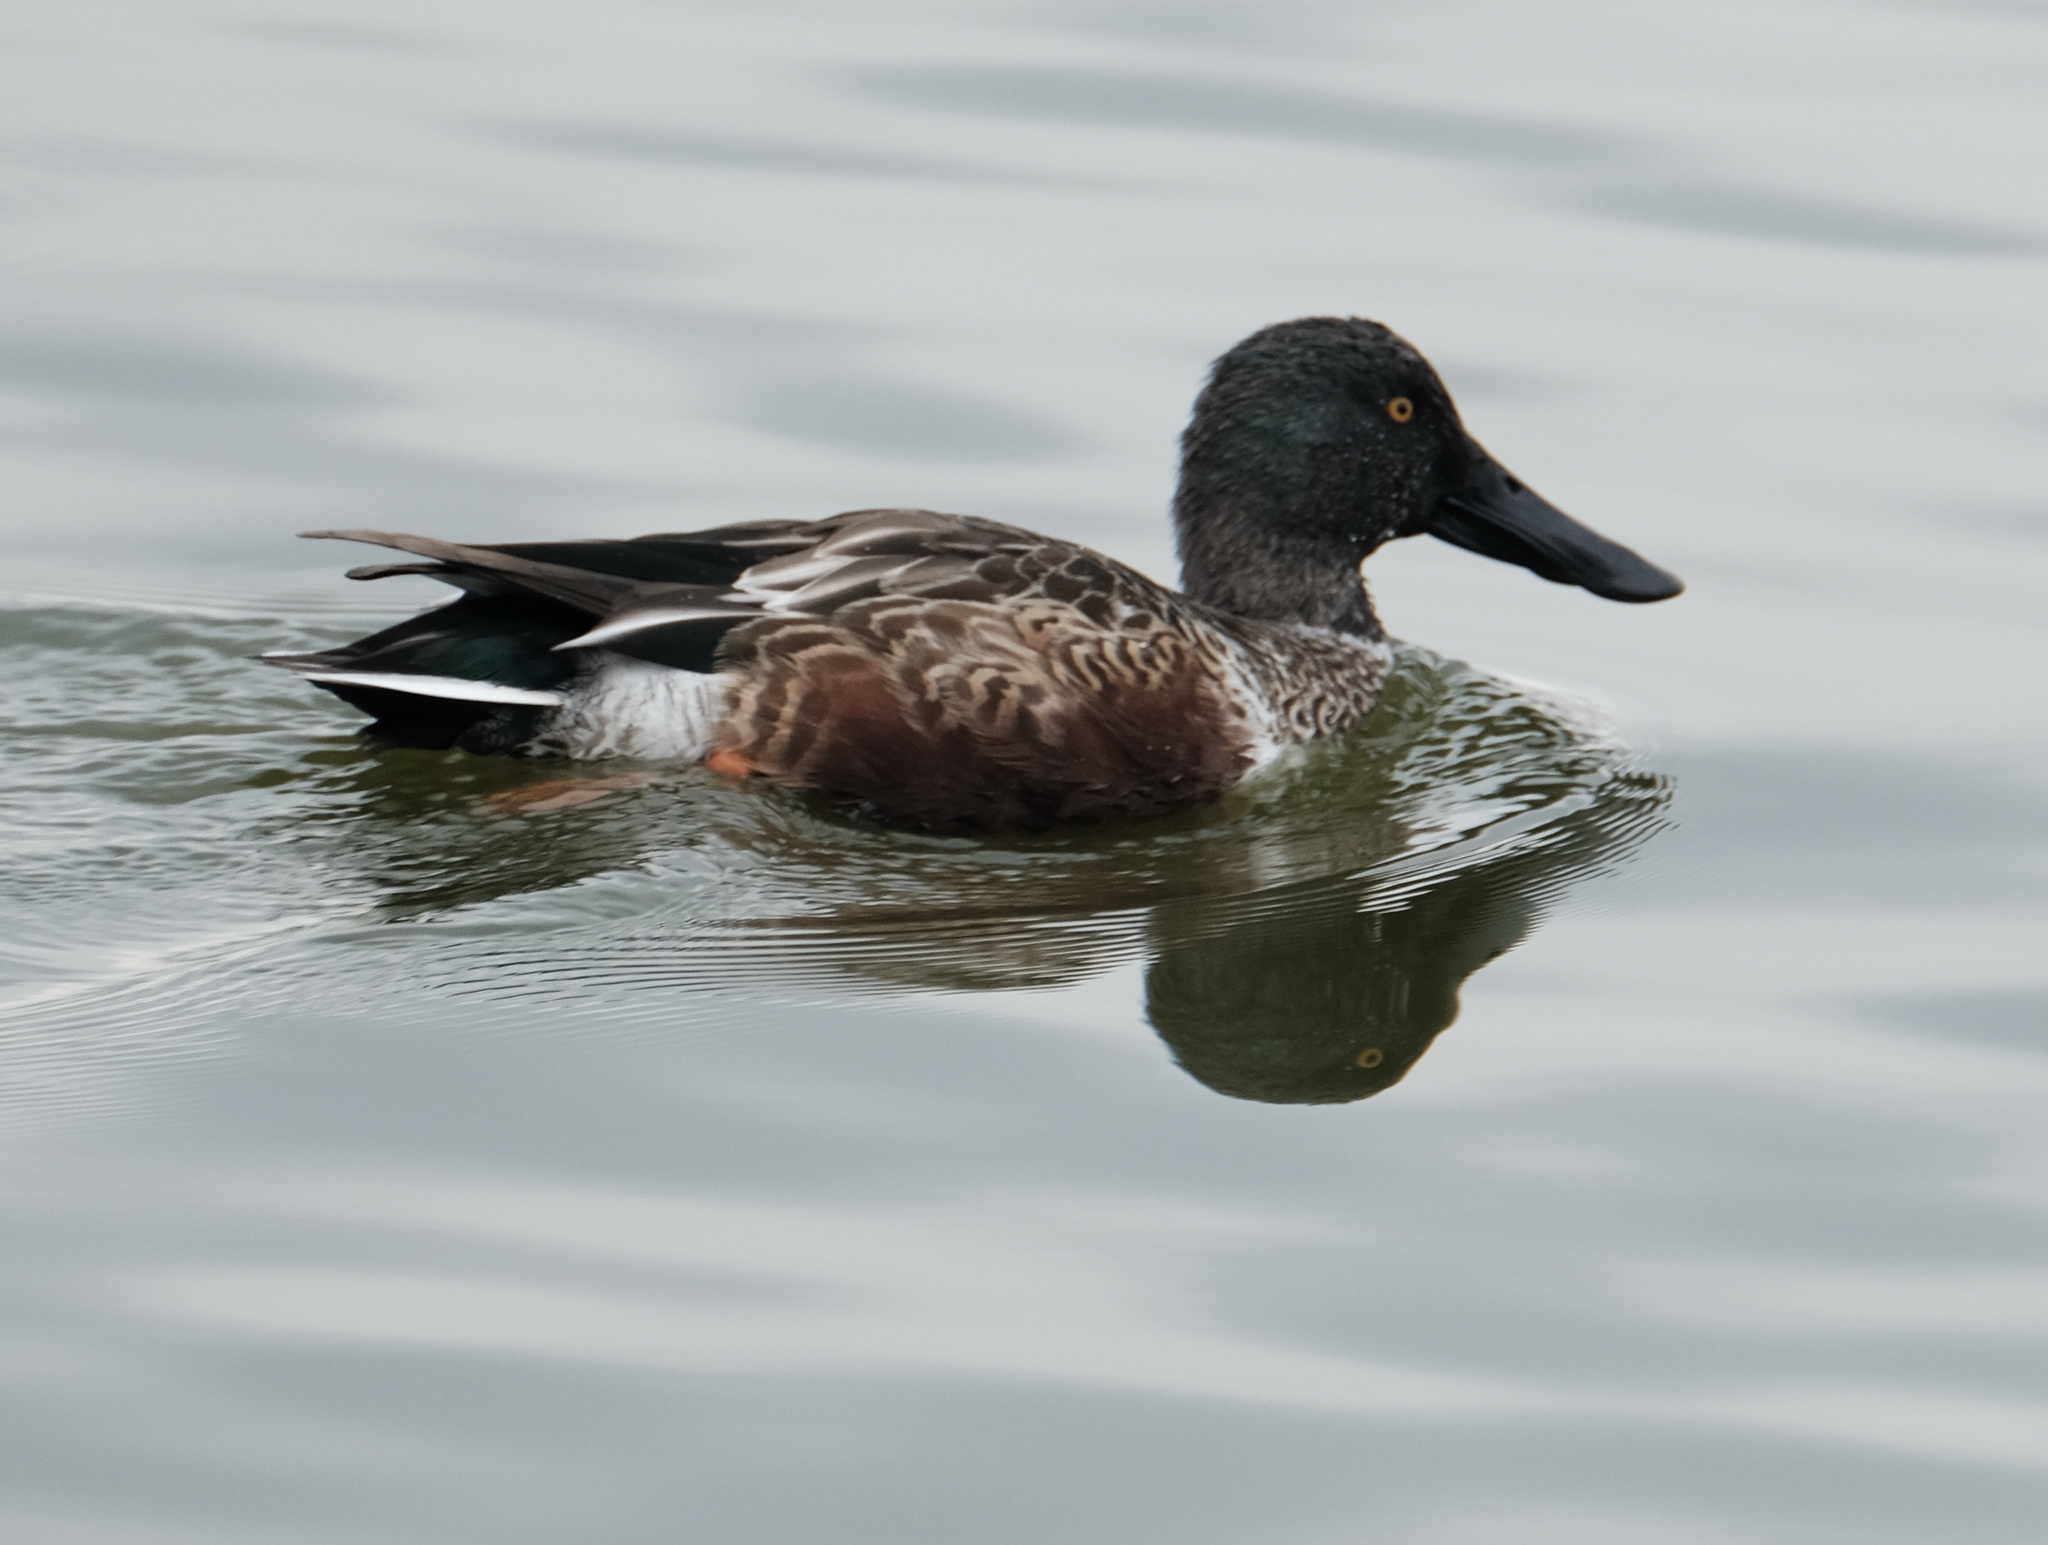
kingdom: Animalia
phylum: Chordata
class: Aves
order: Anseriformes
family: Anatidae
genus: Spatula
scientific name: Spatula clypeata
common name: Northern shoveler
